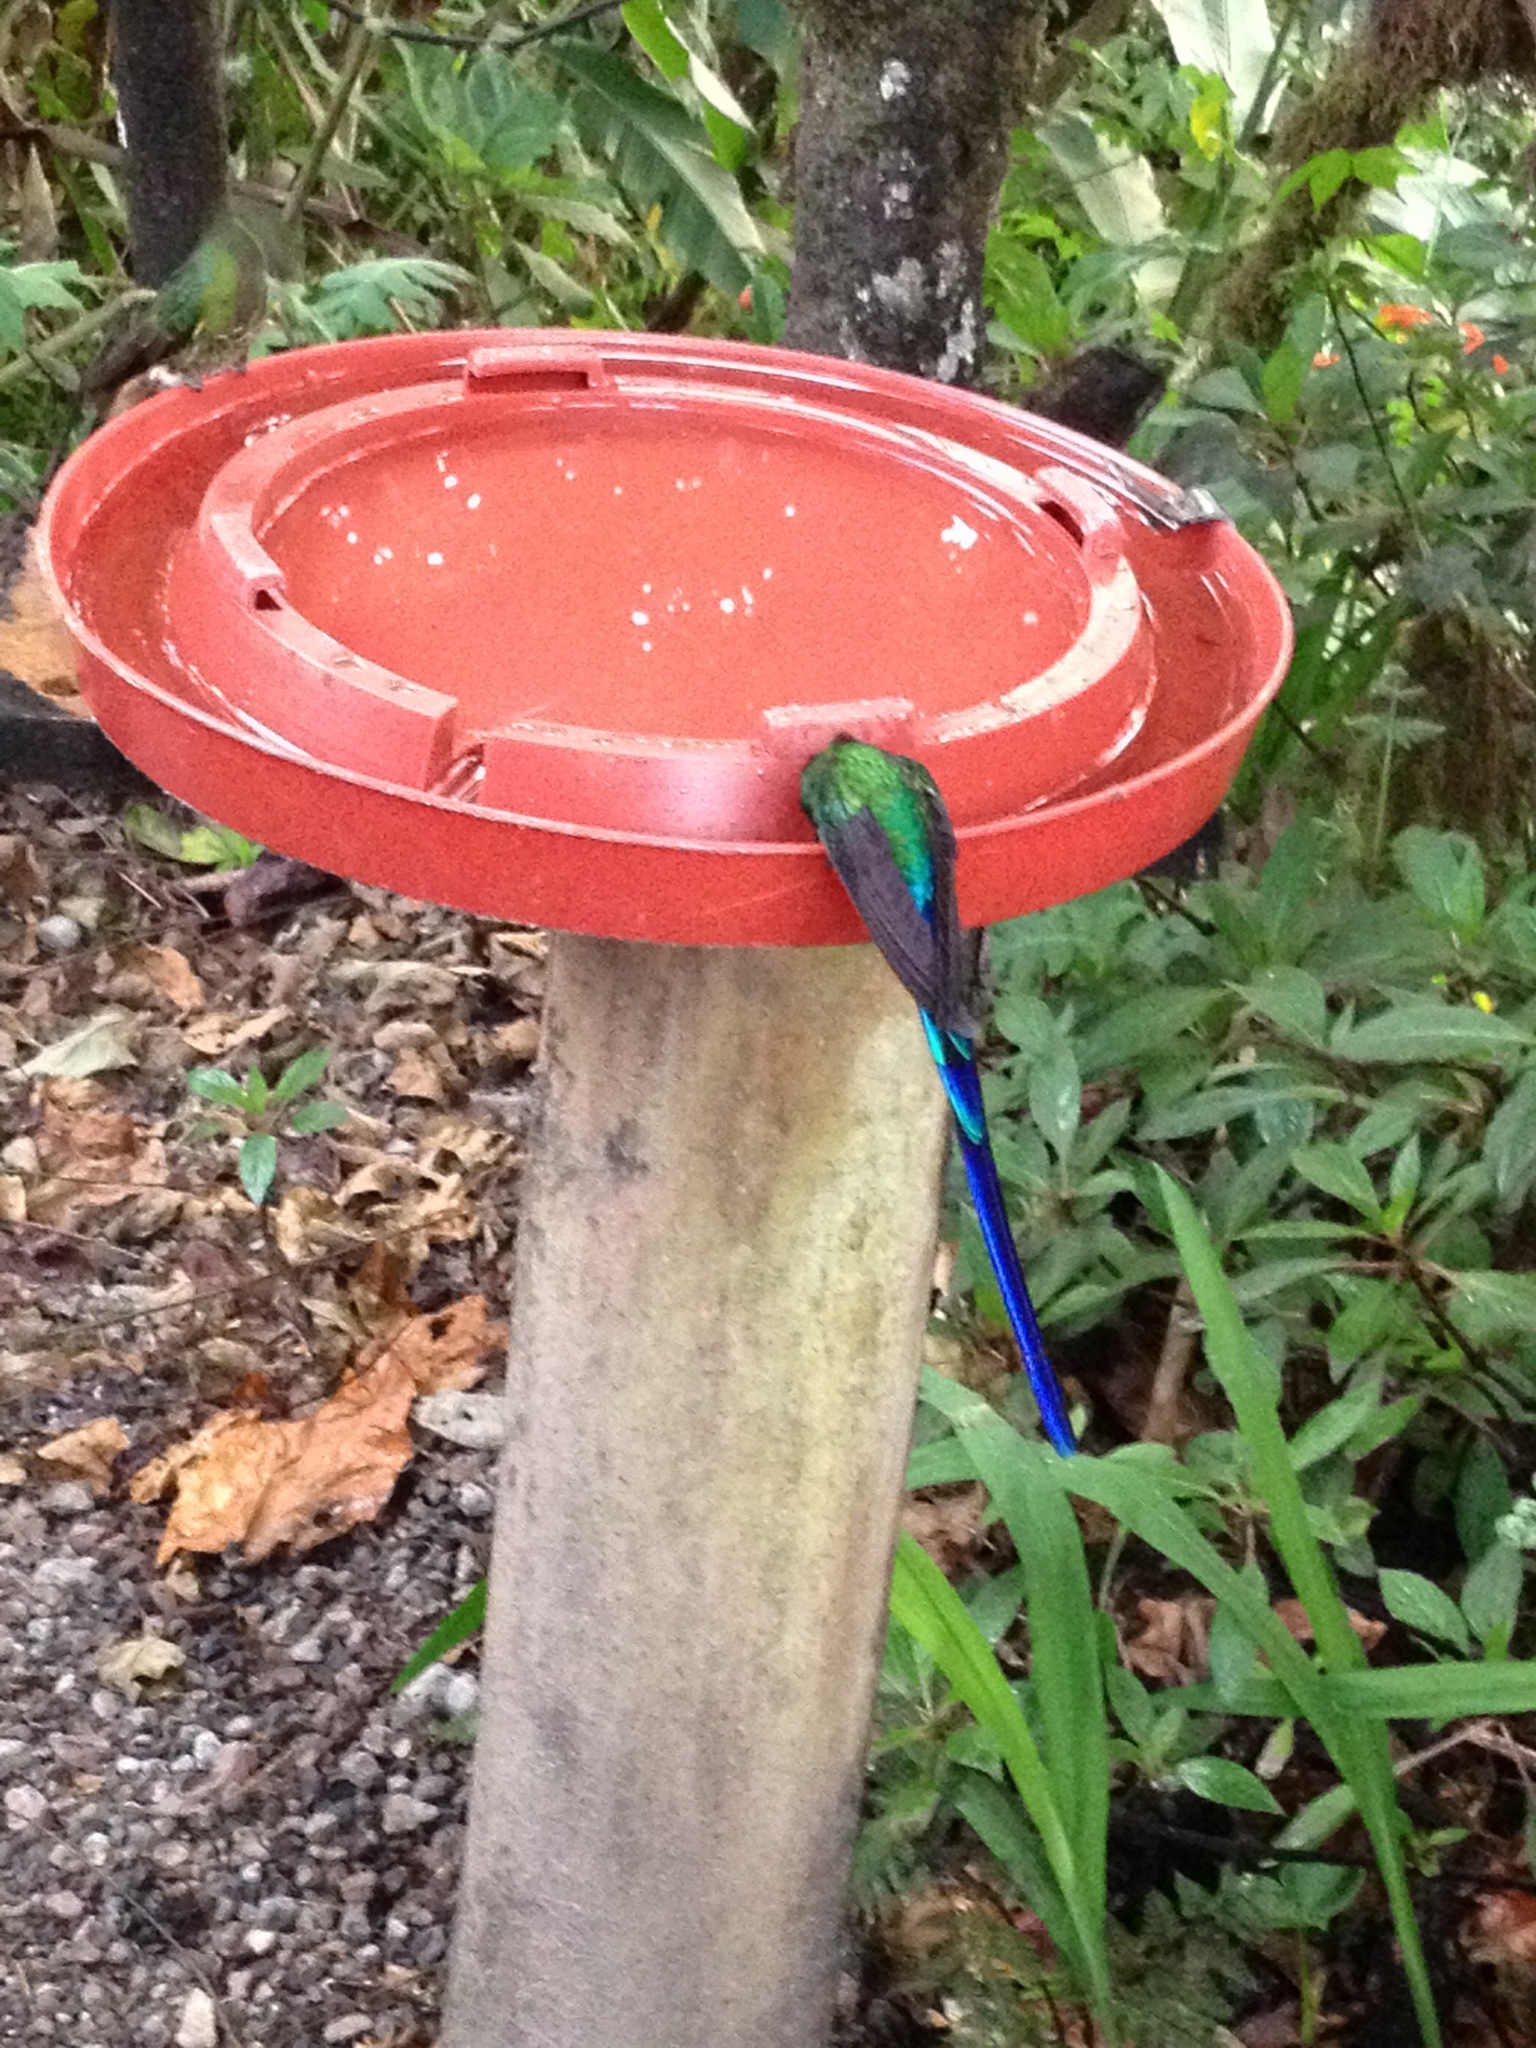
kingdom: Animalia
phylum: Chordata
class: Aves
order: Apodiformes
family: Trochilidae
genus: Aglaiocercus
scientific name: Aglaiocercus coelestis
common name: Violet-tailed sylph
